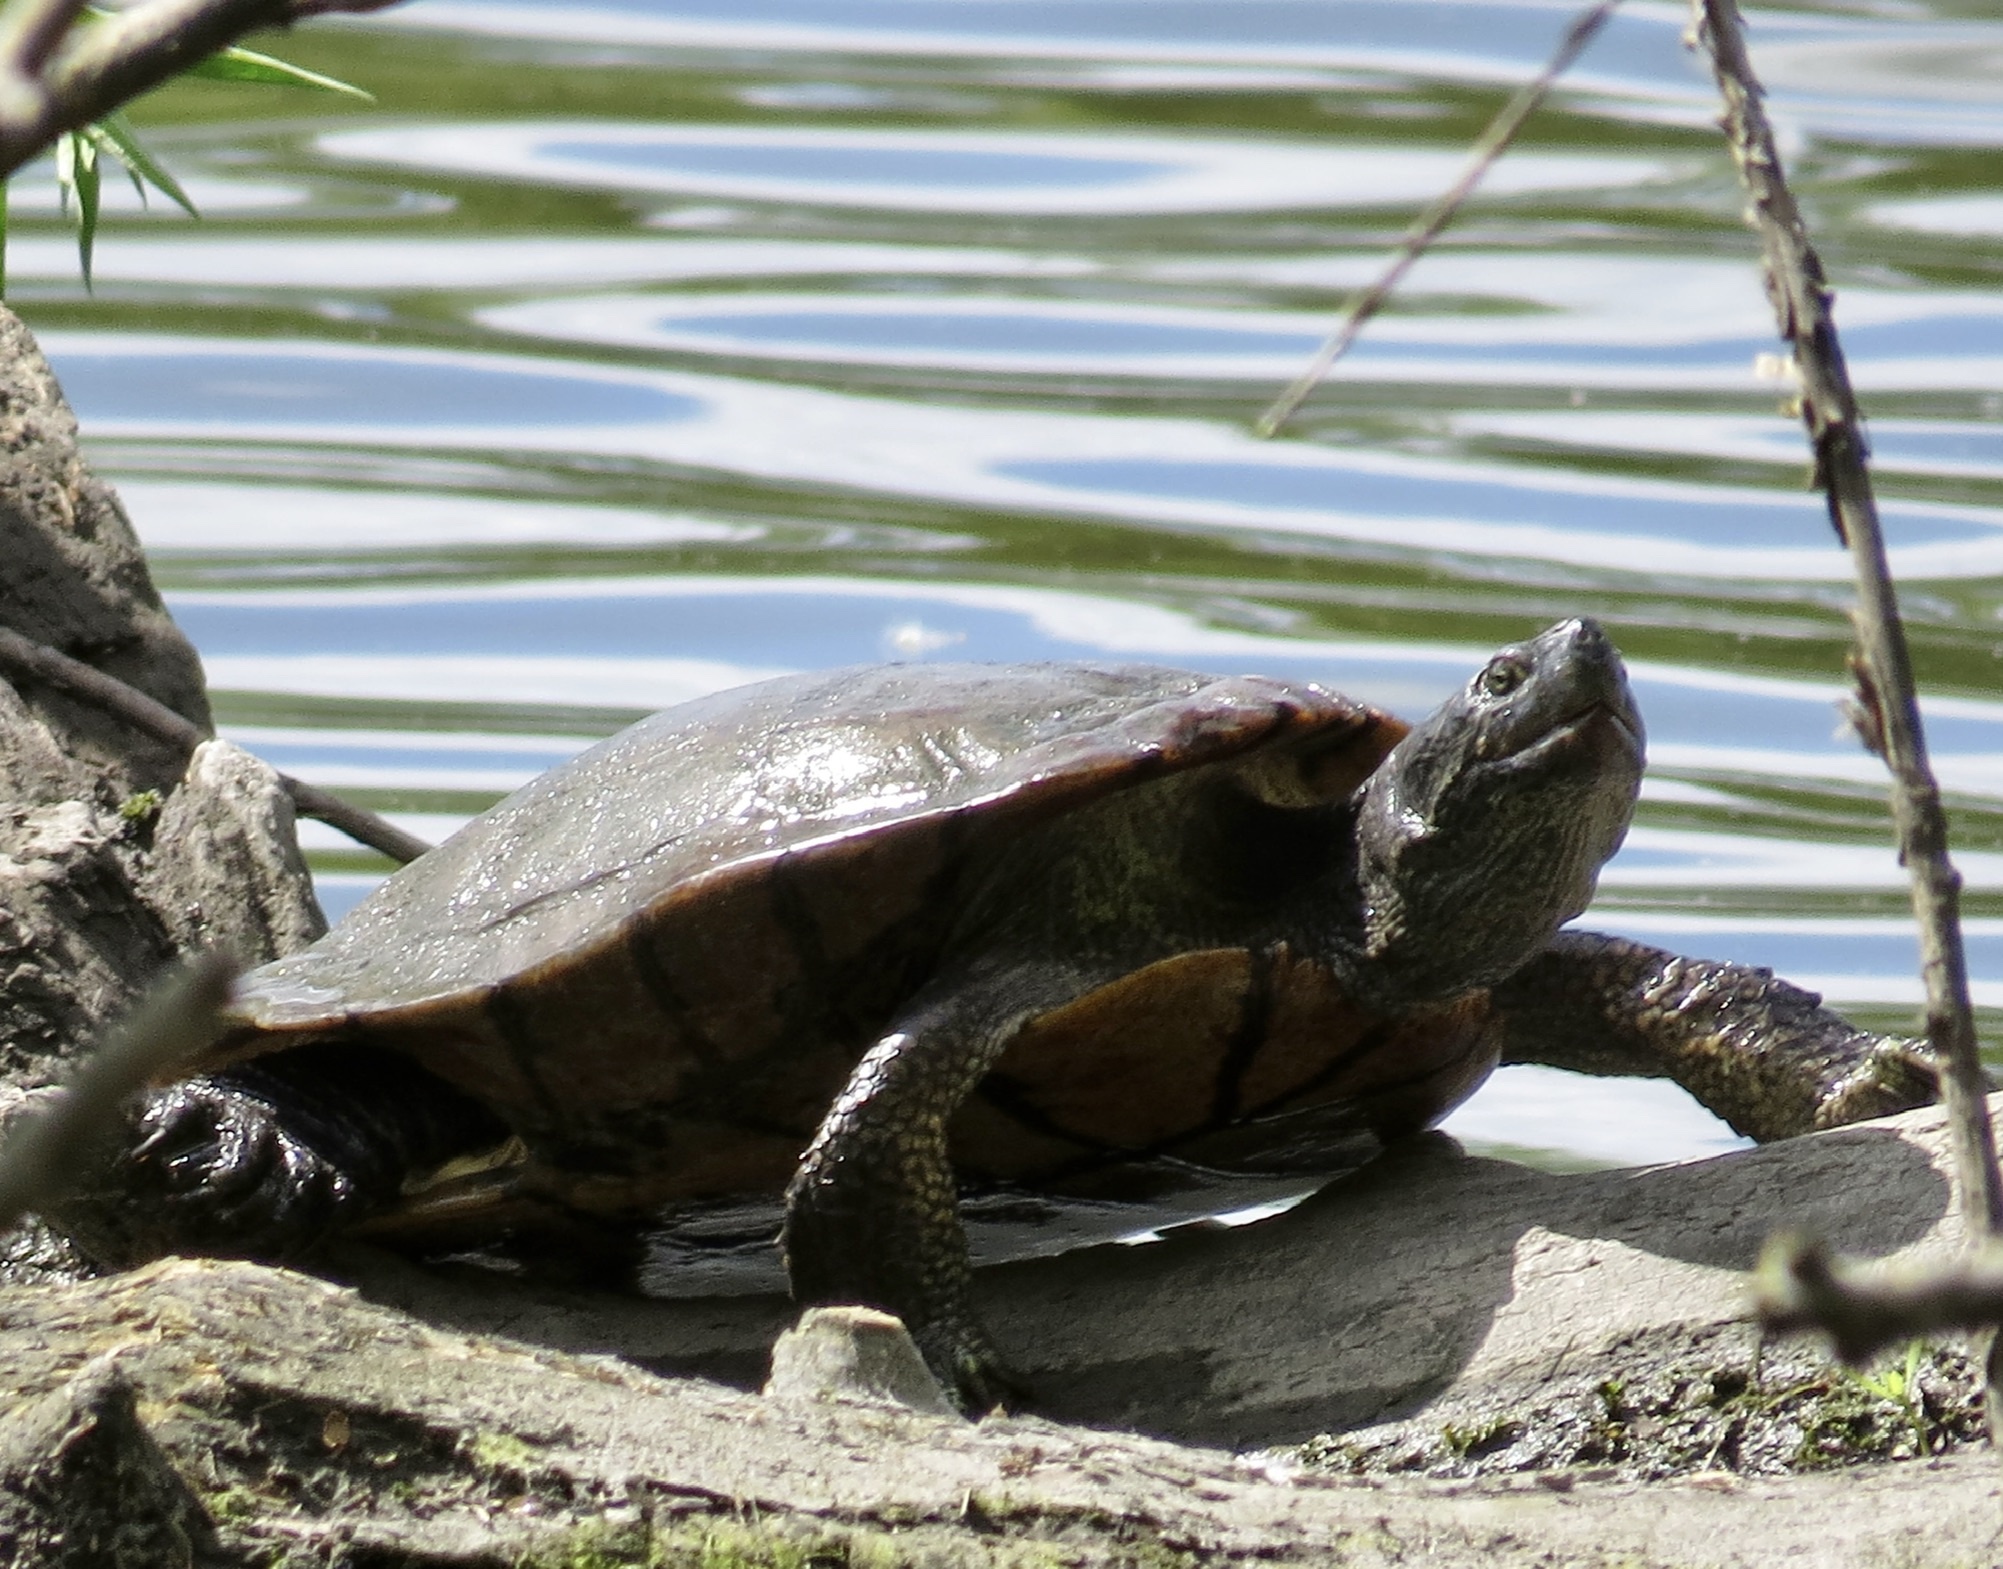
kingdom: Animalia
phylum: Chordata
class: Testudines
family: Emydidae
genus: Trachemys
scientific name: Trachemys scripta
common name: Slider
